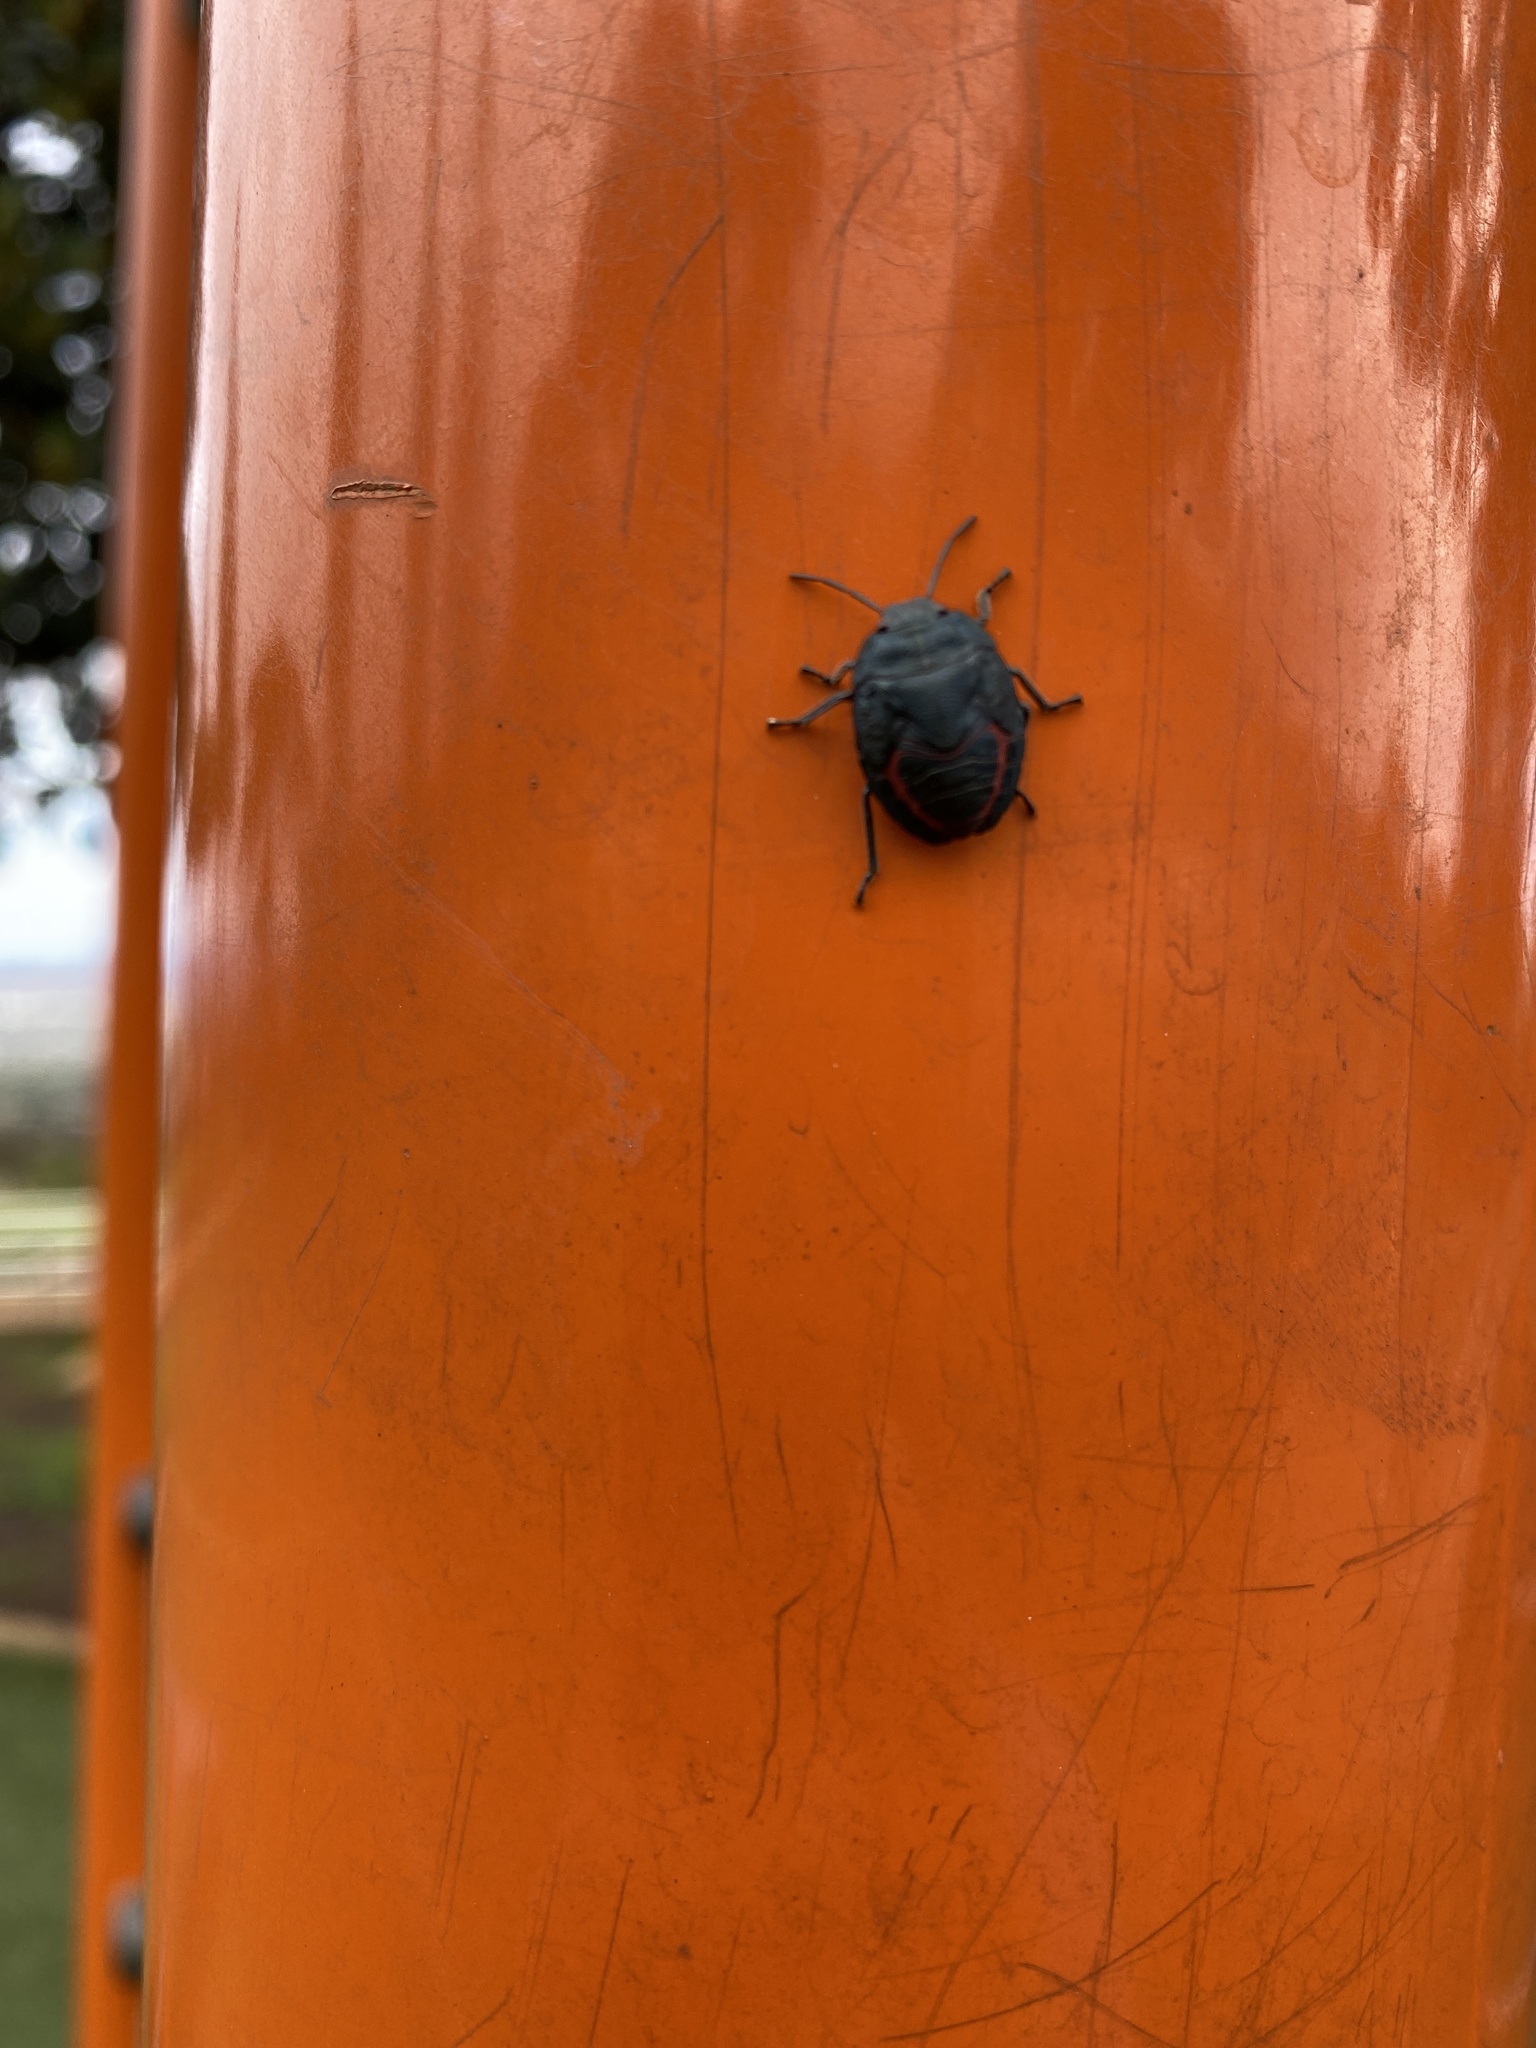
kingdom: Animalia
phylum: Arthropoda
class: Insecta
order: Hemiptera
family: Pentatomidae
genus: Coleotichus
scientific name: Coleotichus blackburniae
